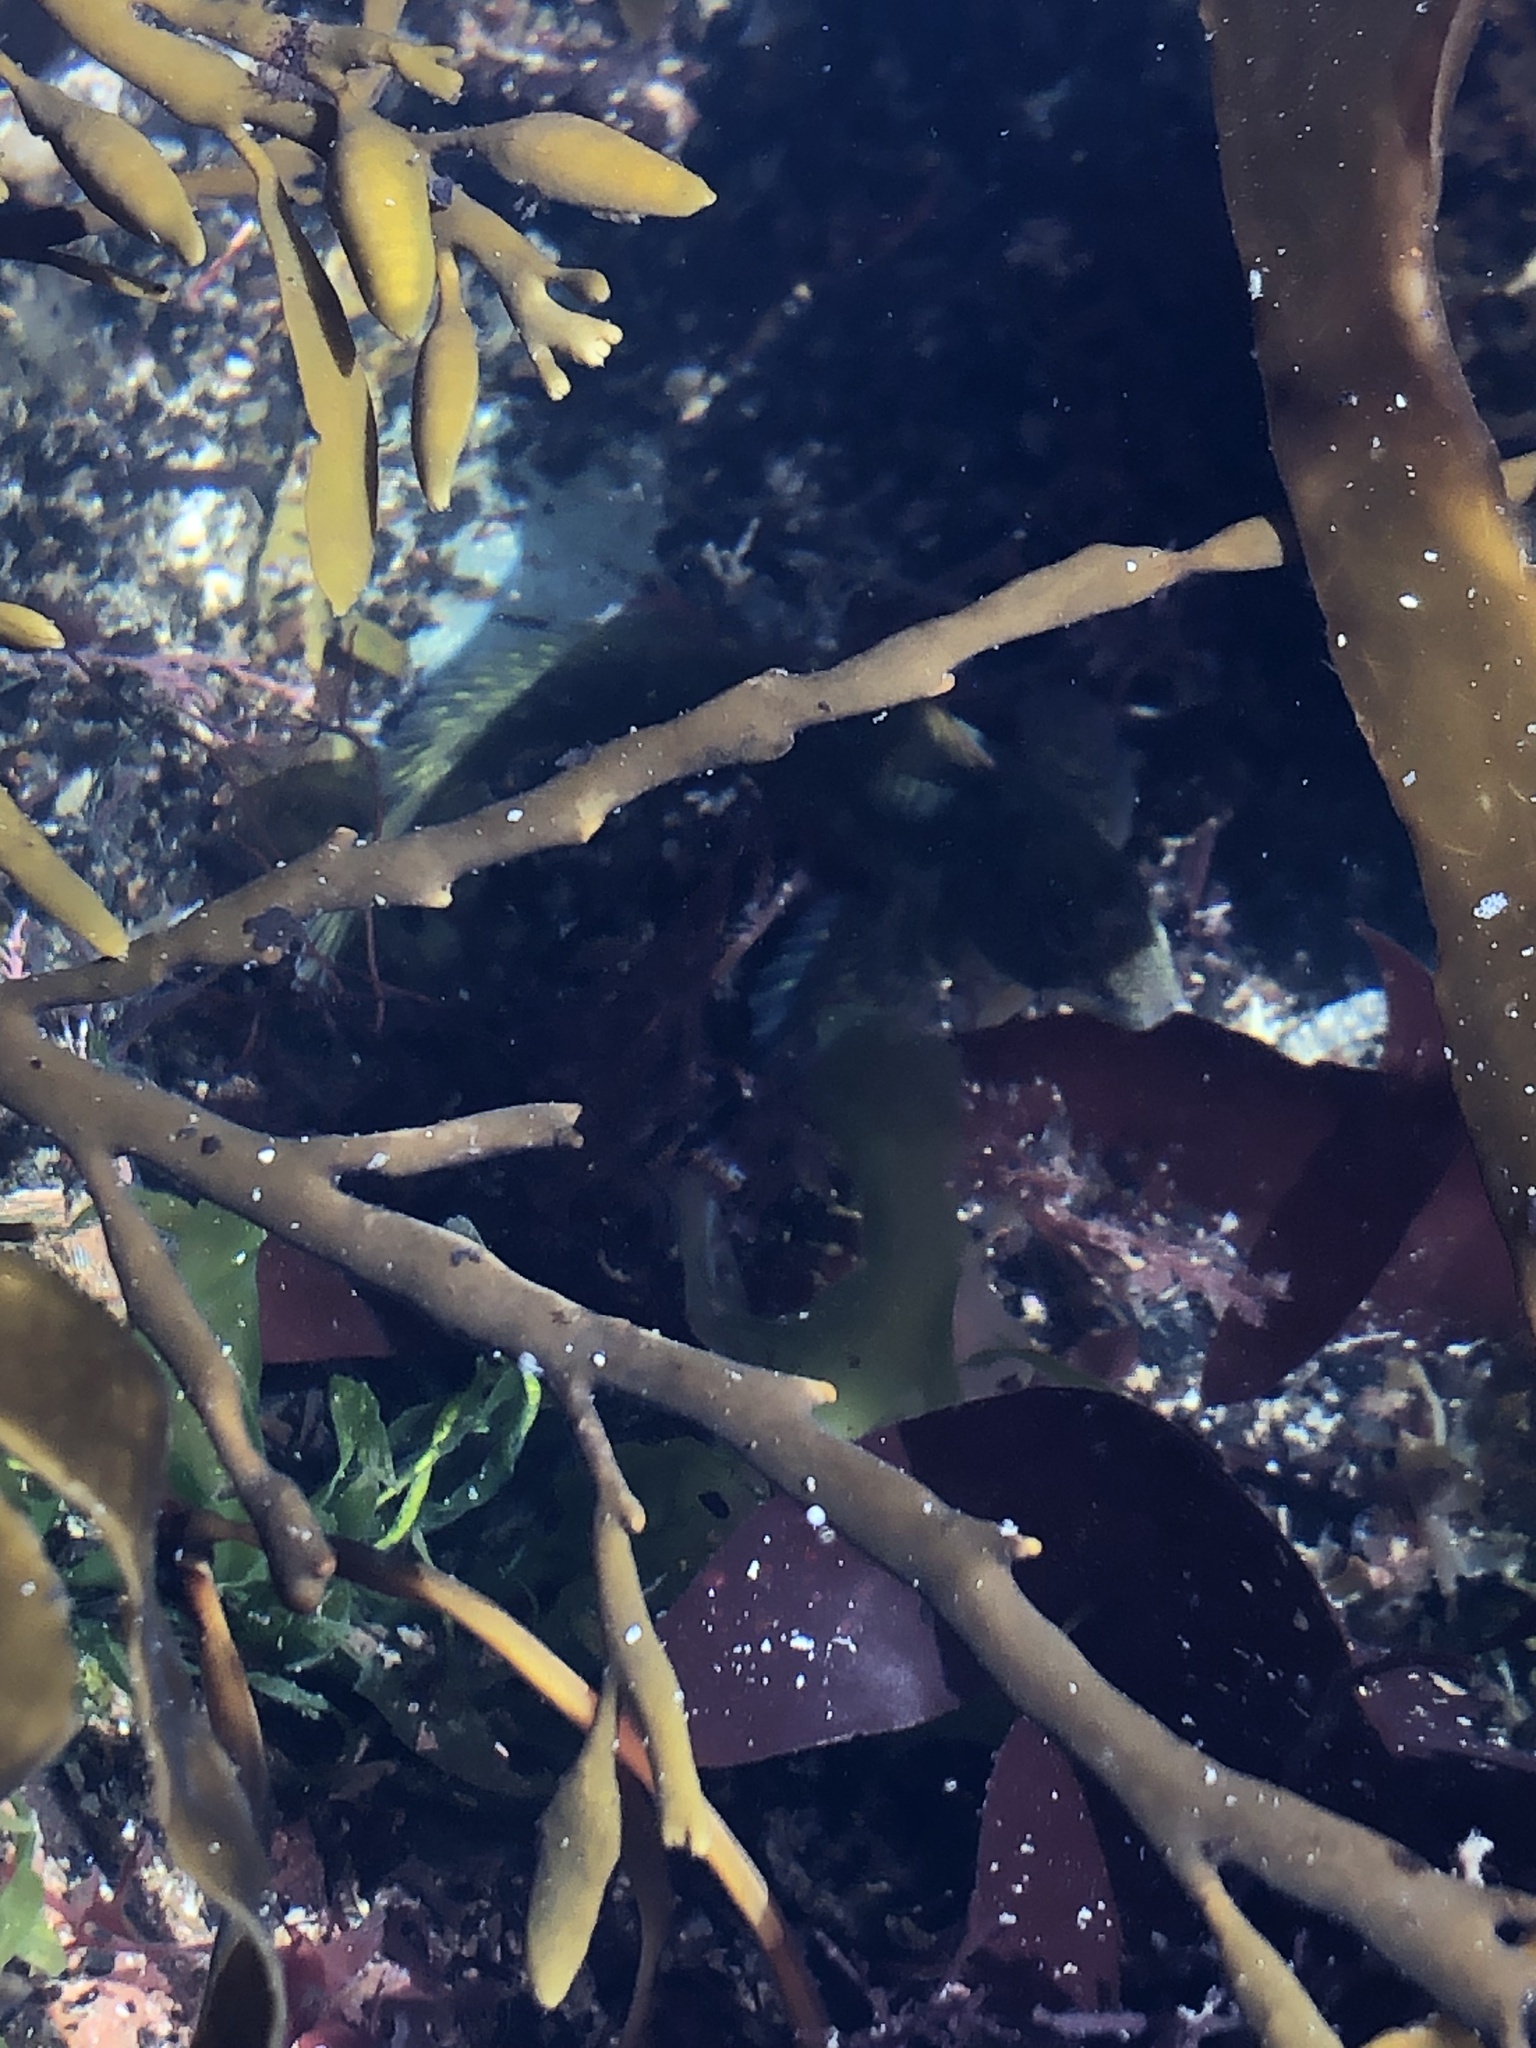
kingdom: Animalia
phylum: Chordata
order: Perciformes
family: Blenniidae
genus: Lipophrys
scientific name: Lipophrys pholis
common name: Shanny
